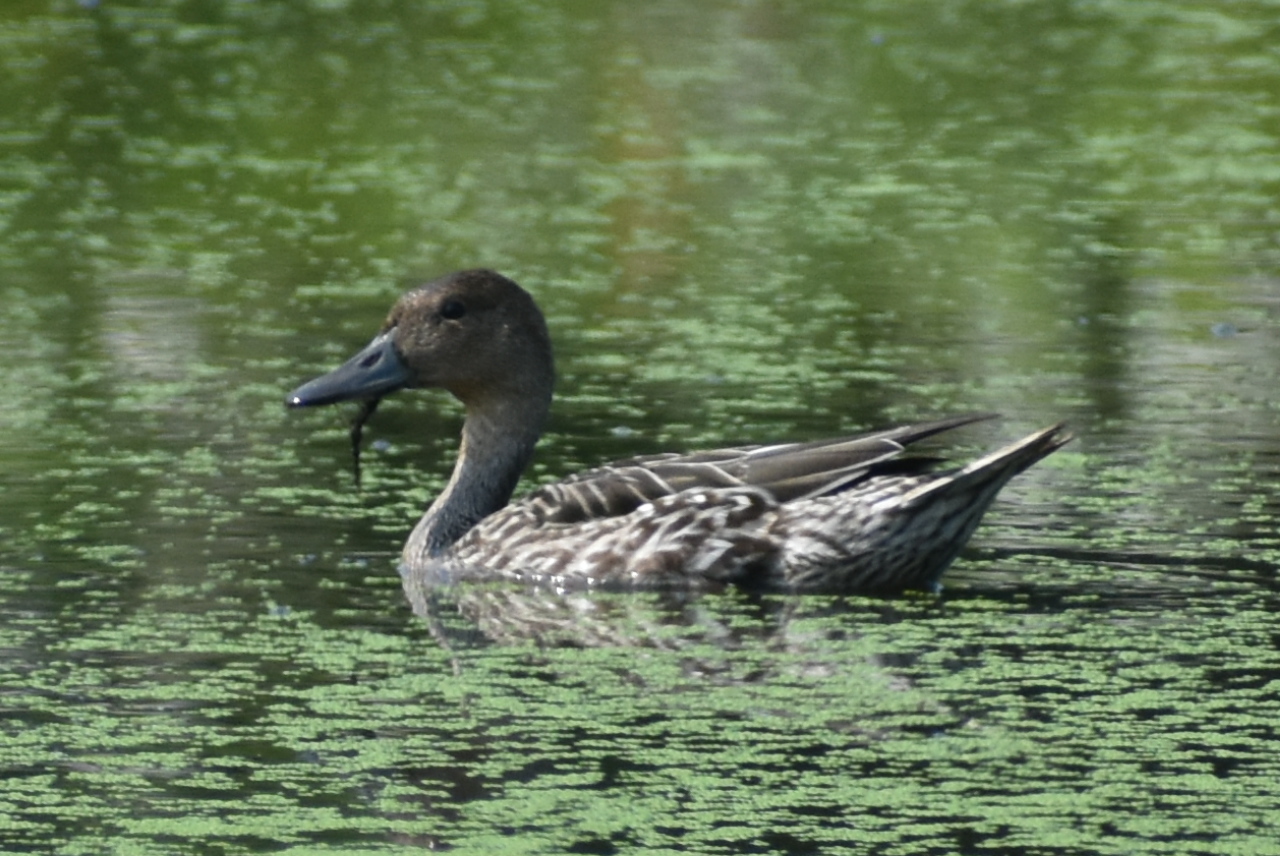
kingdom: Animalia
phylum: Chordata
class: Aves
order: Anseriformes
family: Anatidae
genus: Anas
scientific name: Anas acuta
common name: Northern pintail
